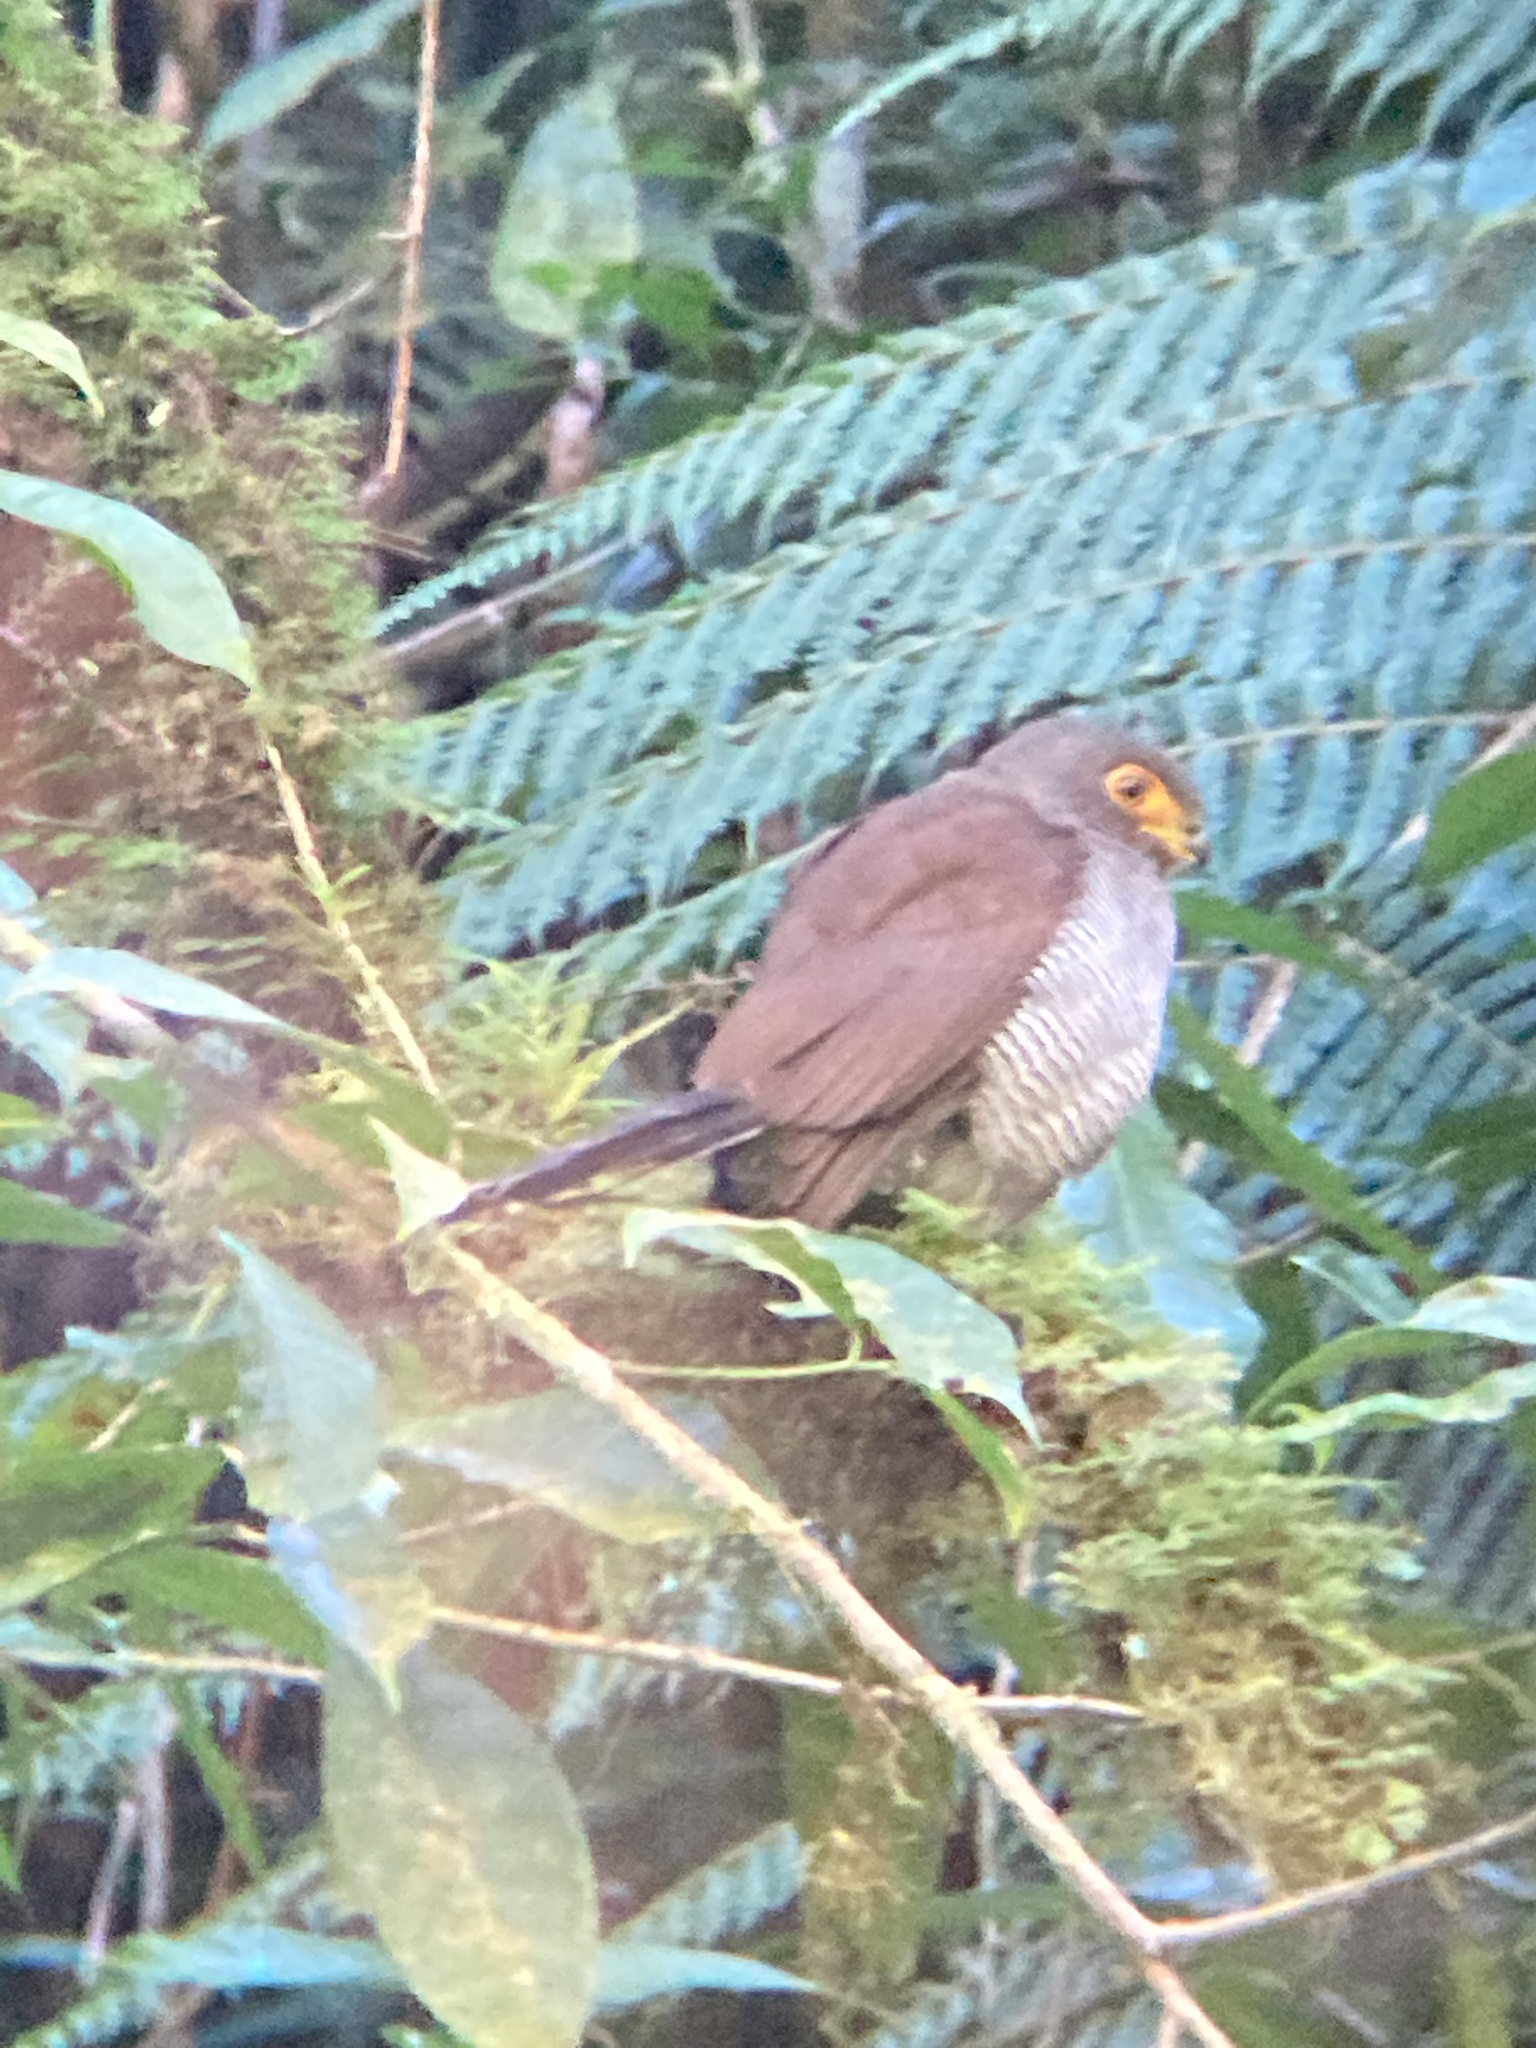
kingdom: Animalia
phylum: Chordata
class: Aves
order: Falconiformes
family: Falconidae
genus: Micrastur
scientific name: Micrastur ruficollis
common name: Barred forest-falcon
